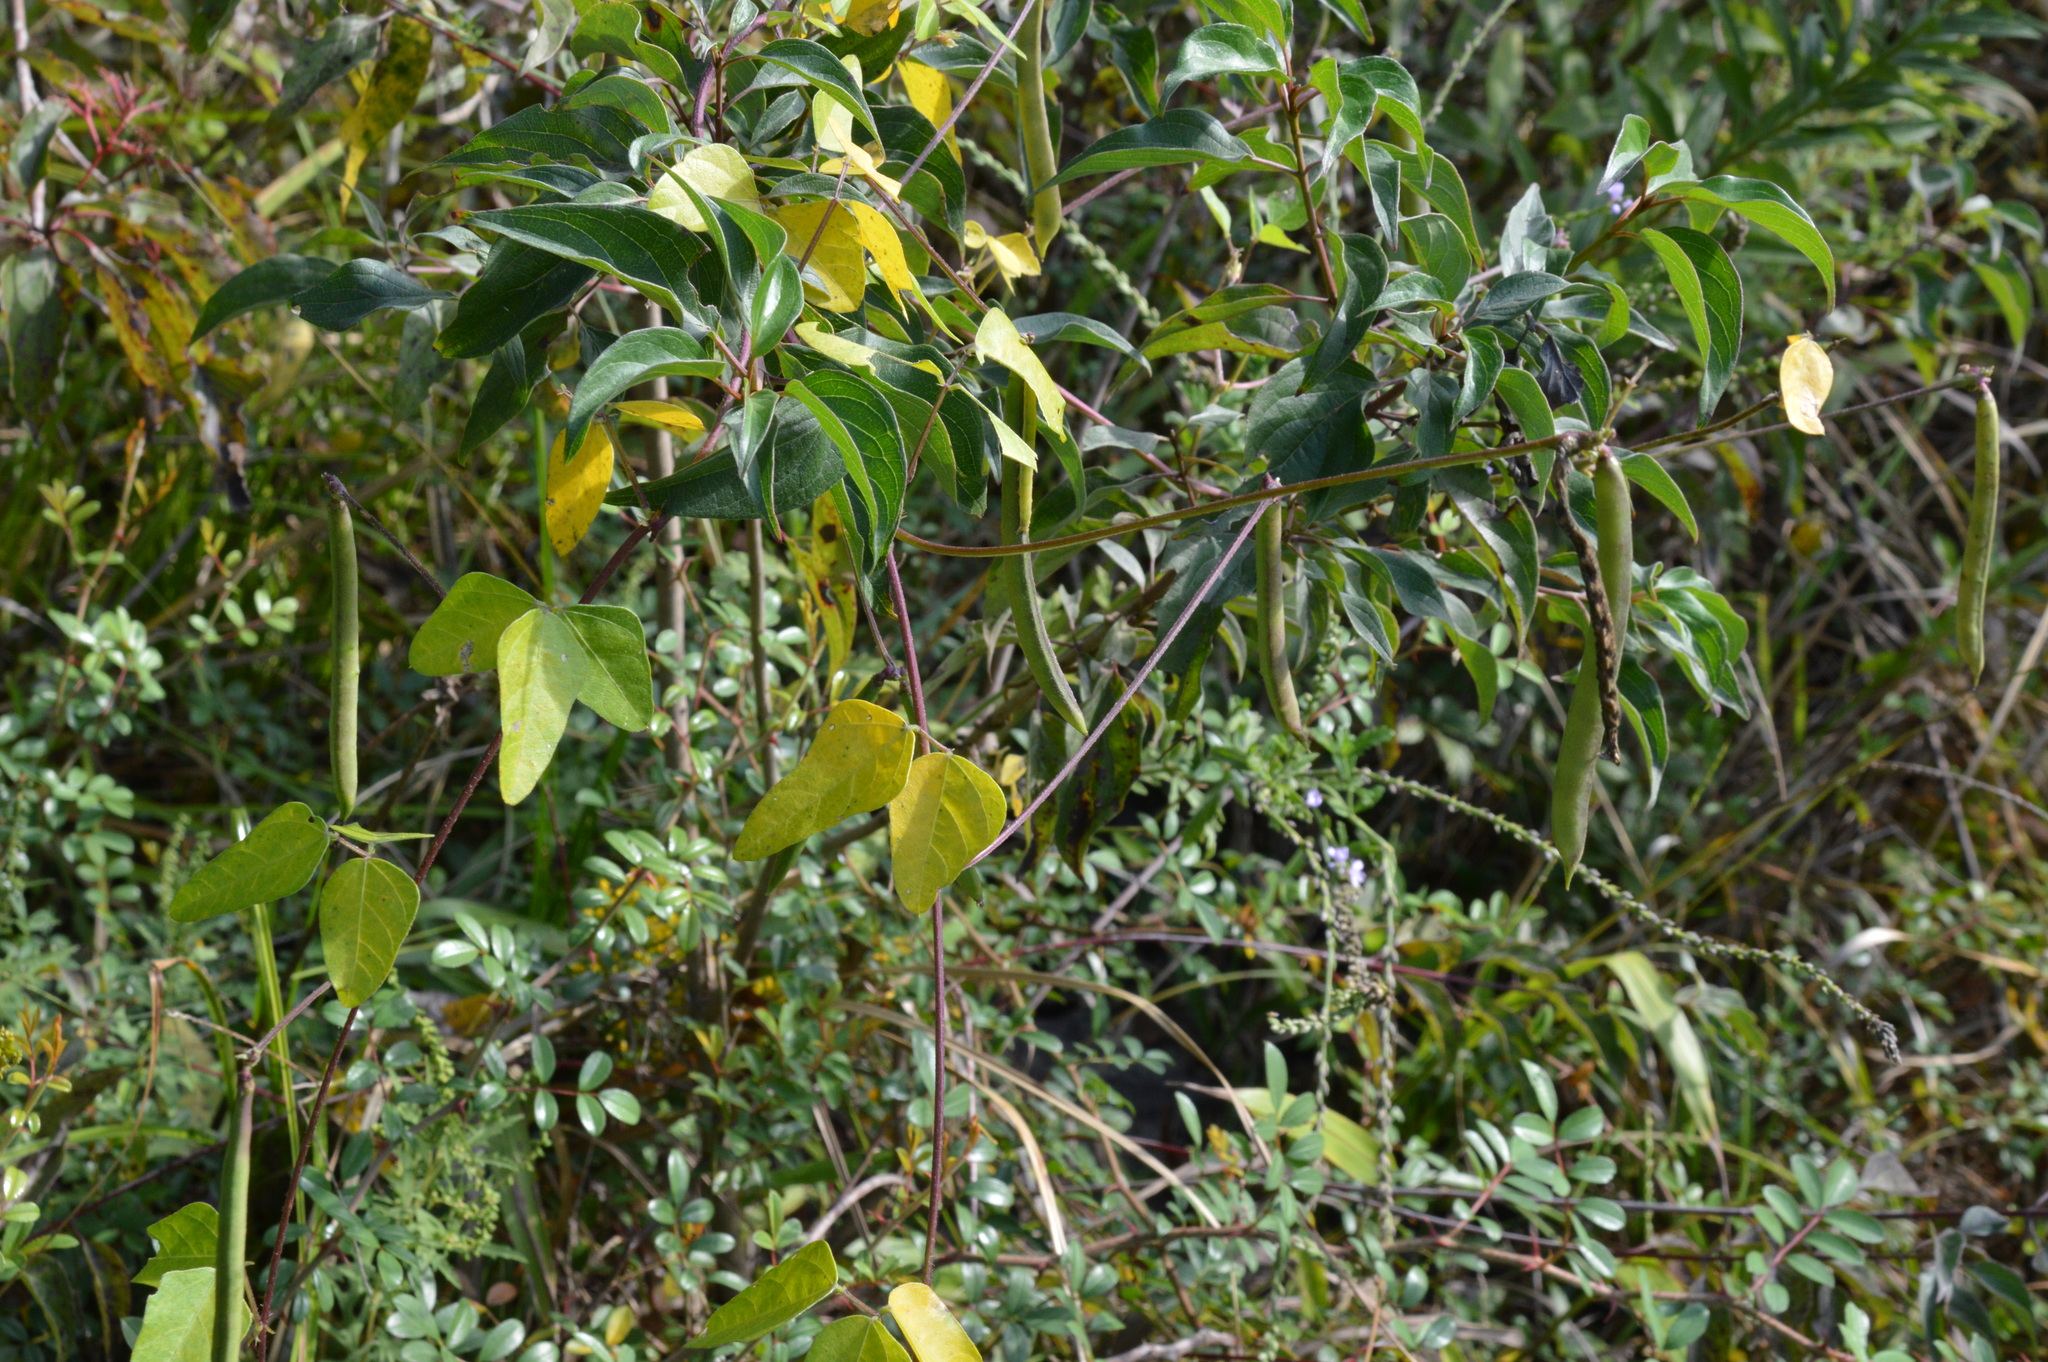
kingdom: Plantae
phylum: Tracheophyta
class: Magnoliopsida
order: Fabales
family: Fabaceae
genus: Strophostyles
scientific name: Strophostyles helvola
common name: Trailing wild bean
